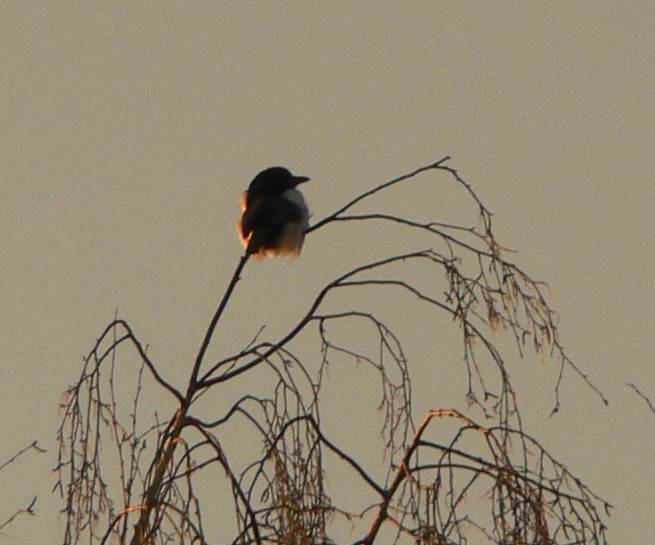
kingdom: Animalia
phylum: Chordata
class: Aves
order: Passeriformes
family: Corvidae
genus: Pica
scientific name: Pica pica
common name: Eurasian magpie
